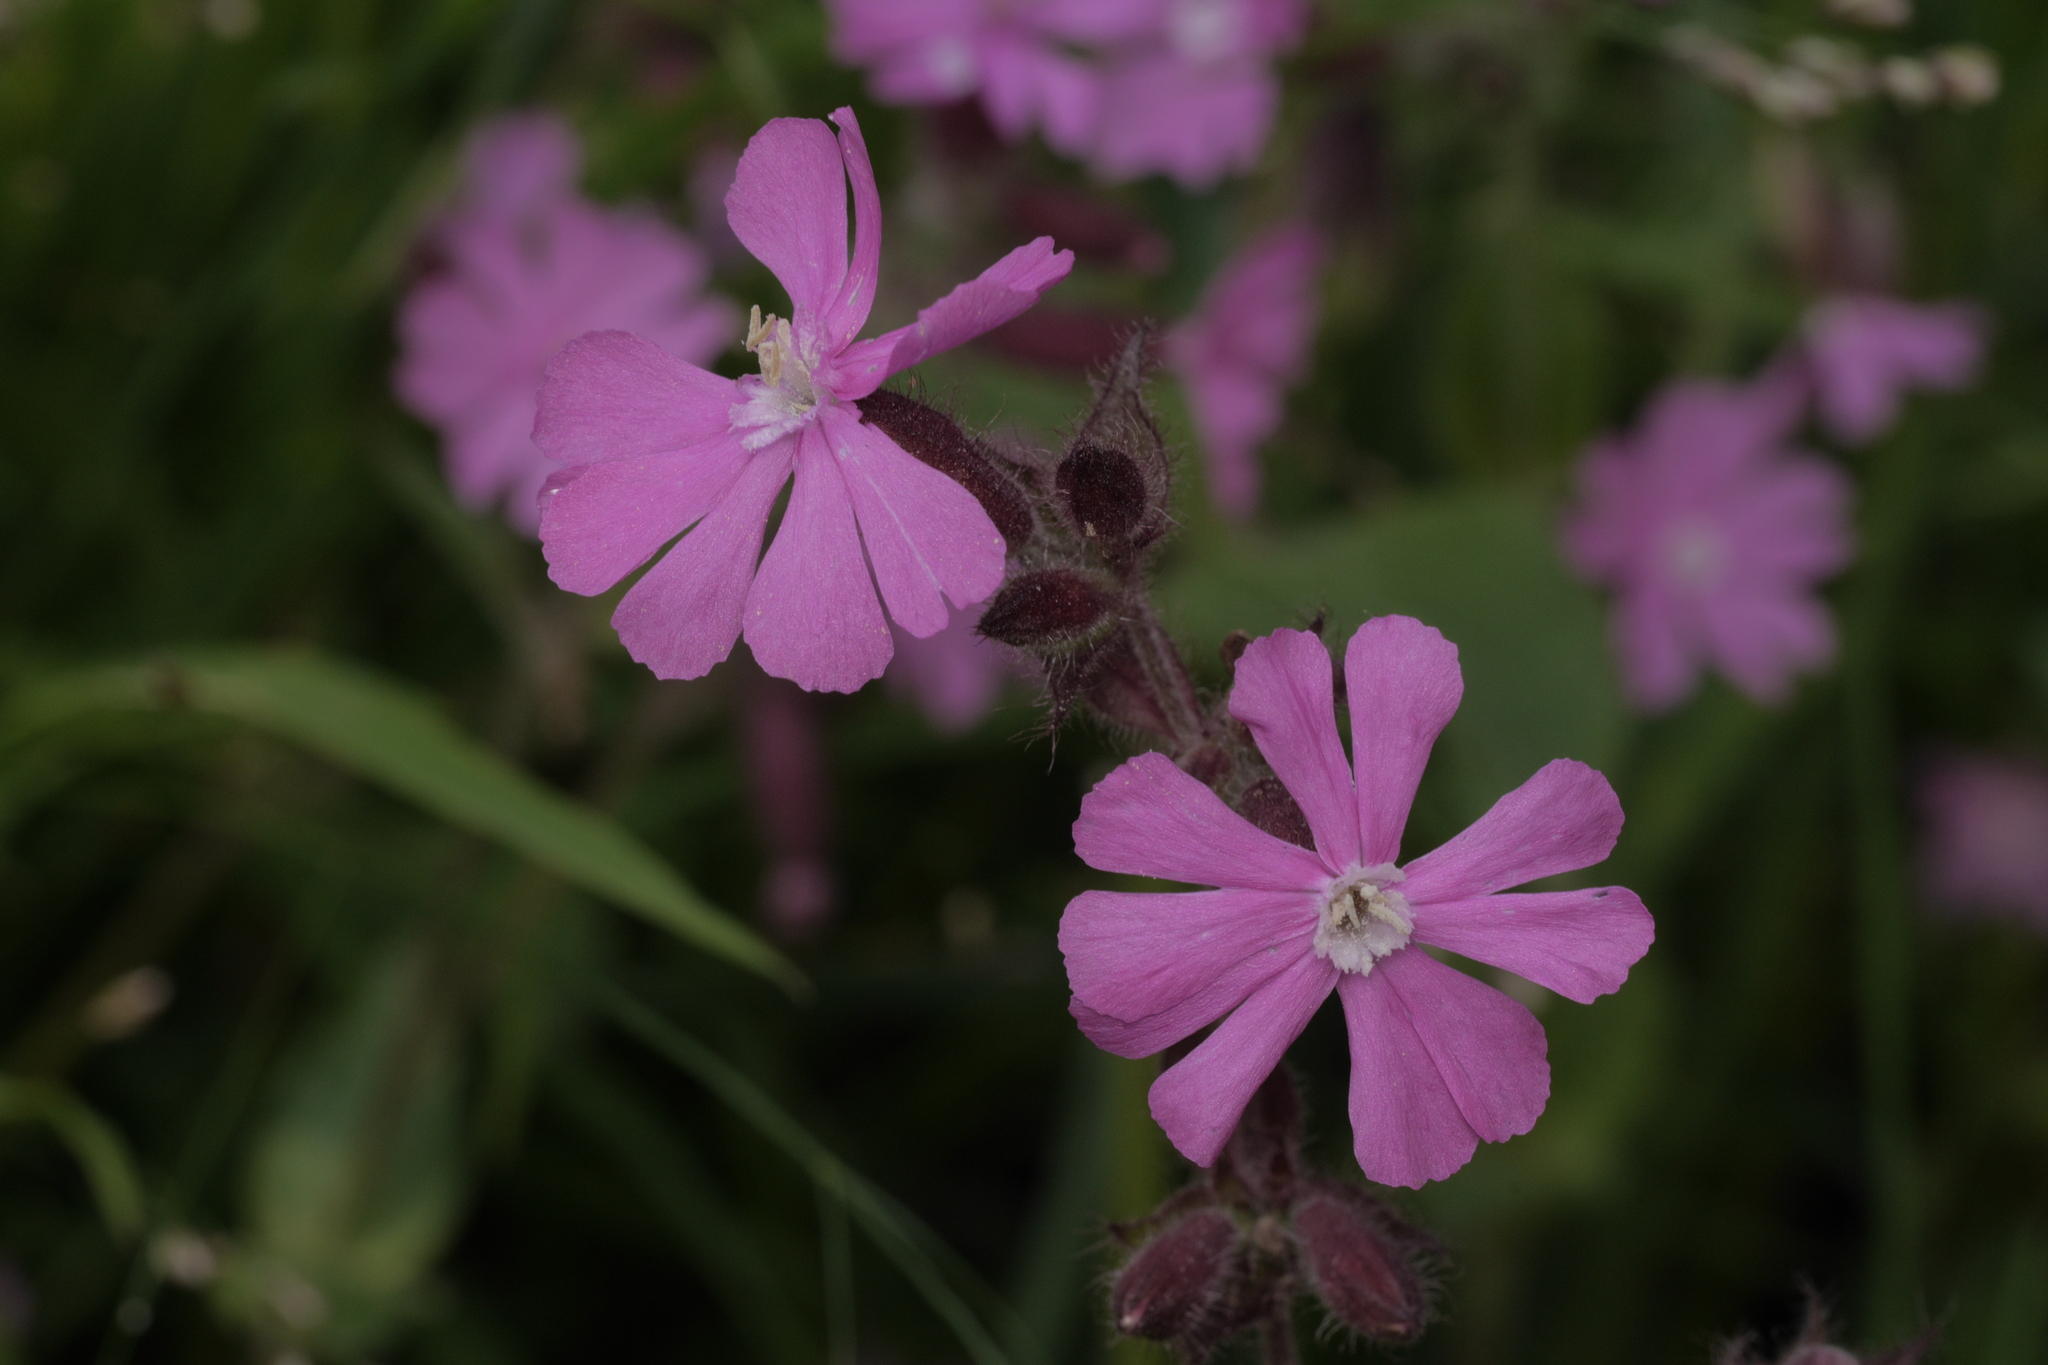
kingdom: Plantae
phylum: Tracheophyta
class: Magnoliopsida
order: Caryophyllales
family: Caryophyllaceae
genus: Silene
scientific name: Silene dioica
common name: Red campion
